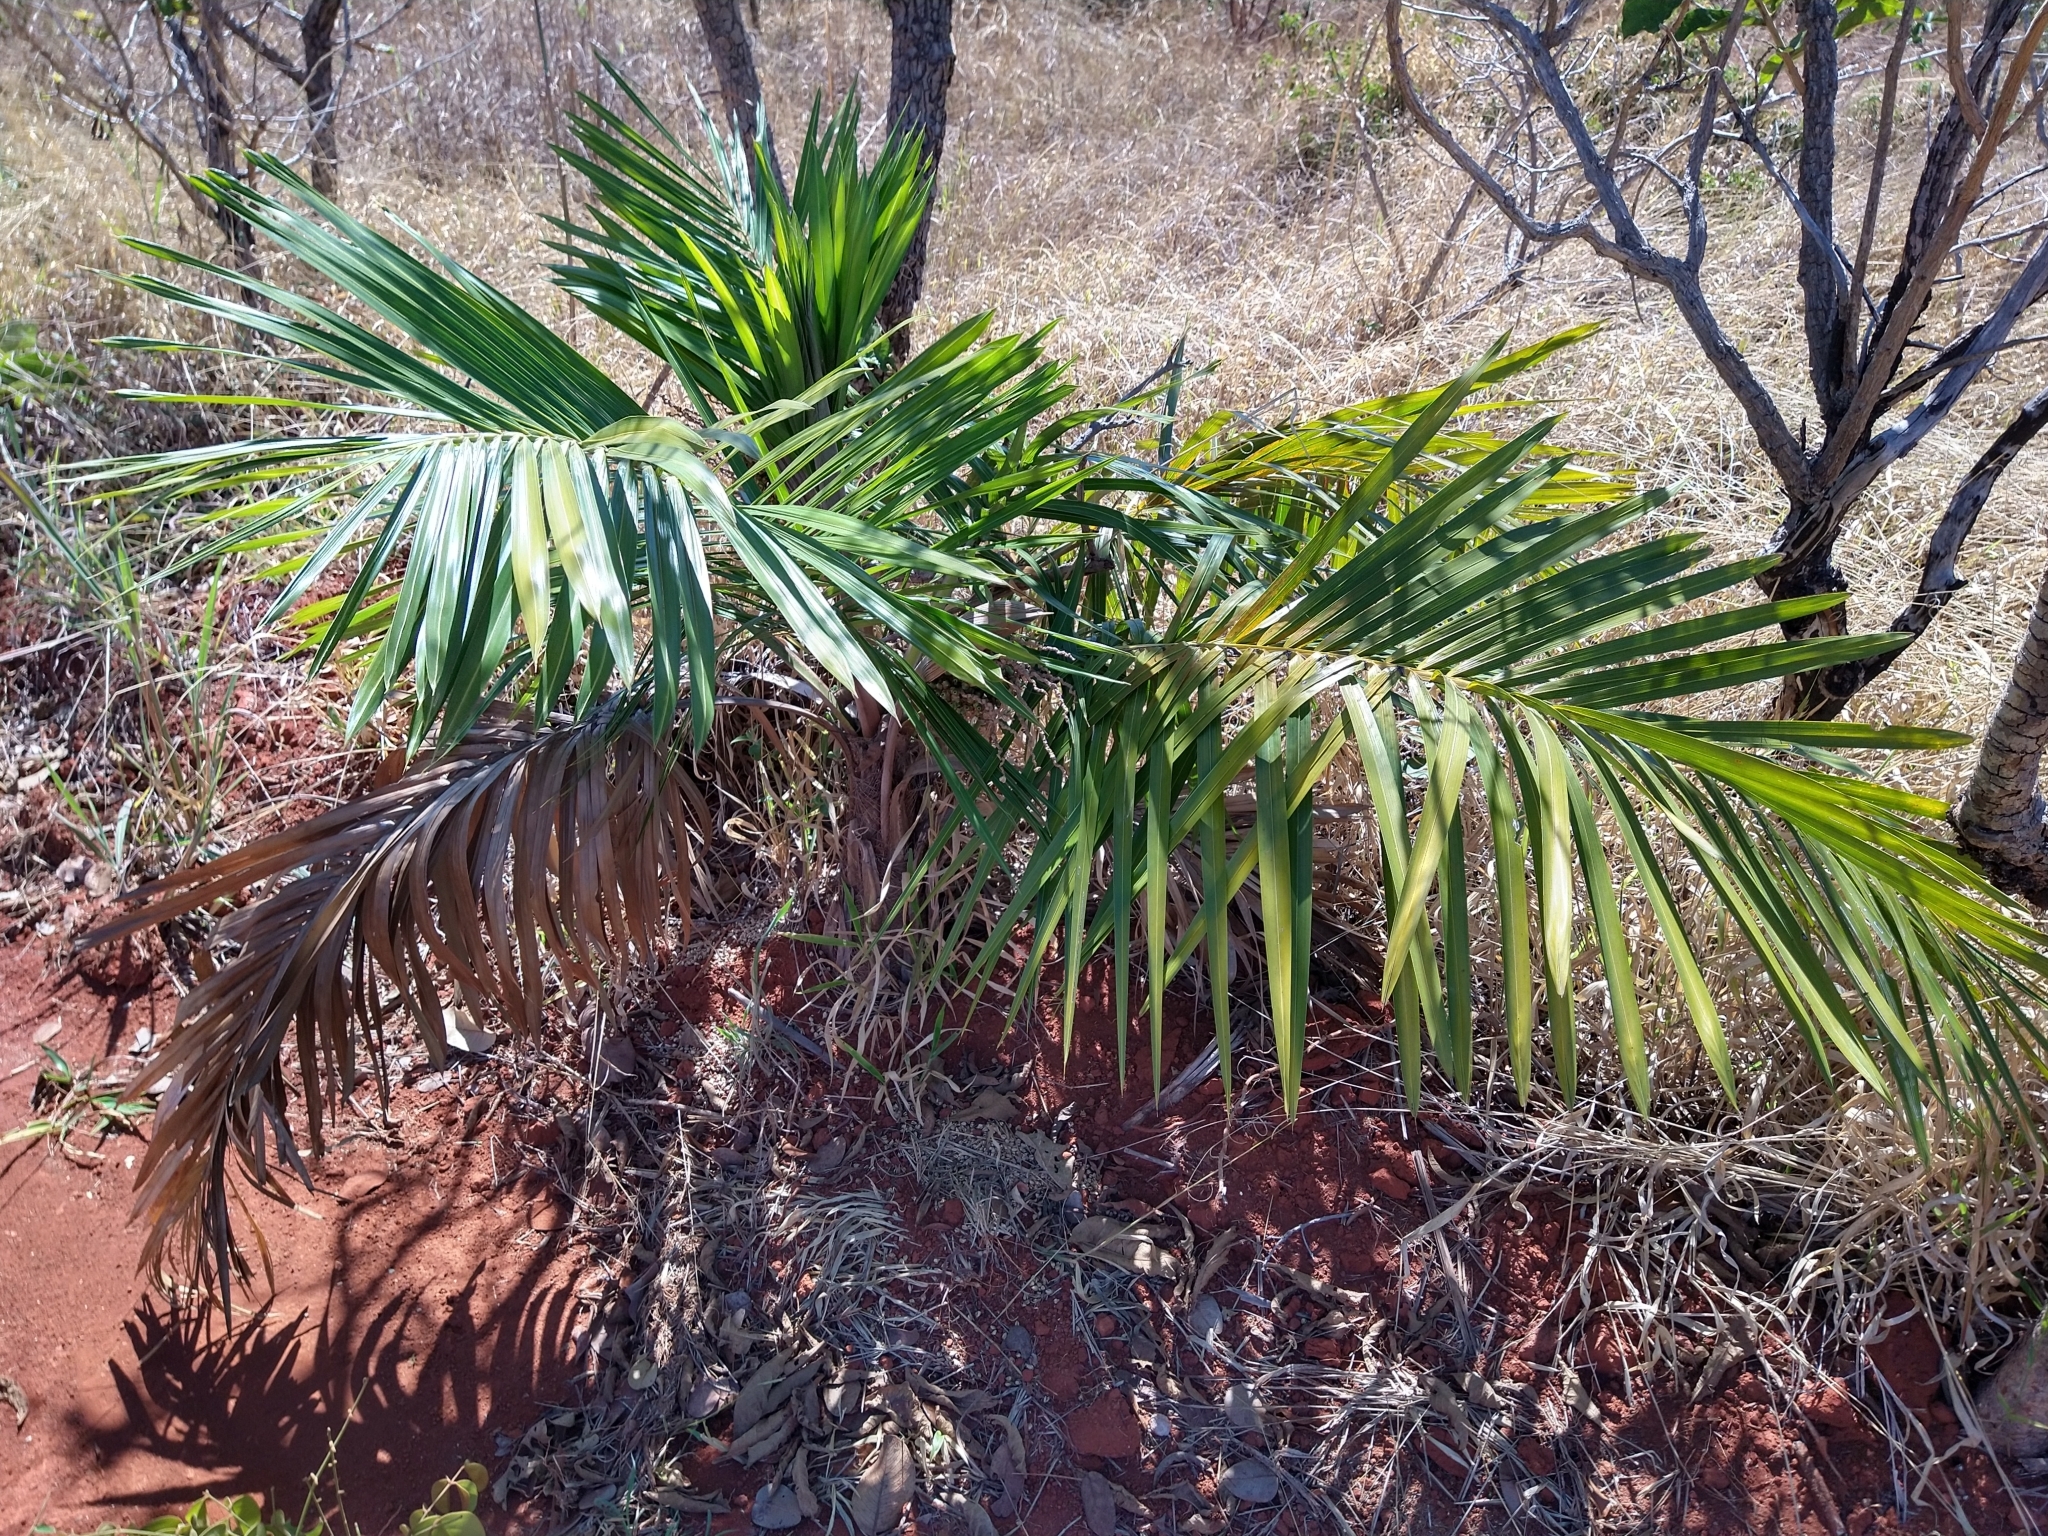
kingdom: Plantae
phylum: Tracheophyta
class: Liliopsida
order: Arecales
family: Arecaceae
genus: Syagrus
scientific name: Syagrus comosa
